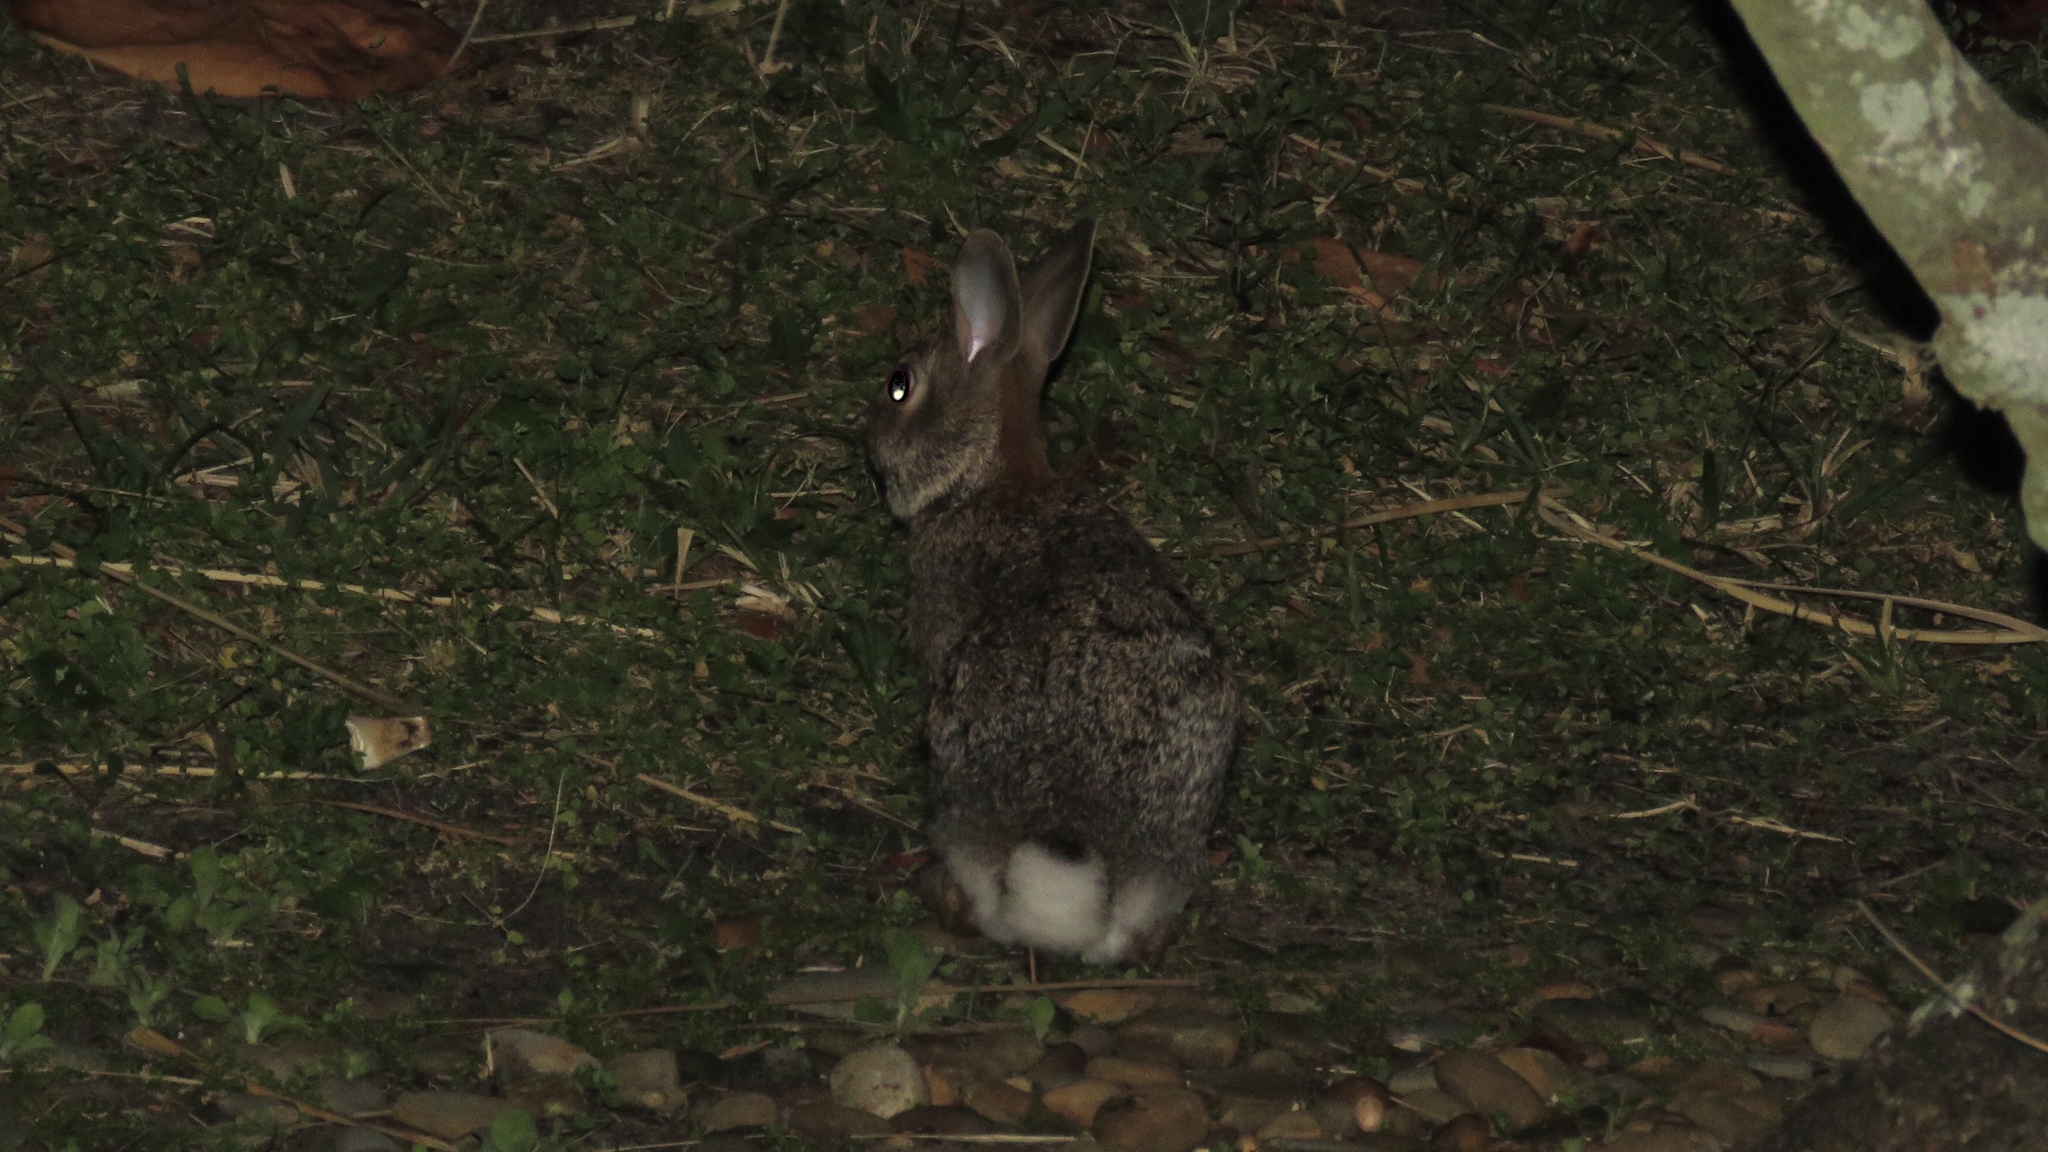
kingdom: Animalia
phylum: Chordata
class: Mammalia
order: Lagomorpha
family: Leporidae
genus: Sylvilagus
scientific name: Sylvilagus floridanus
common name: Eastern cottontail
